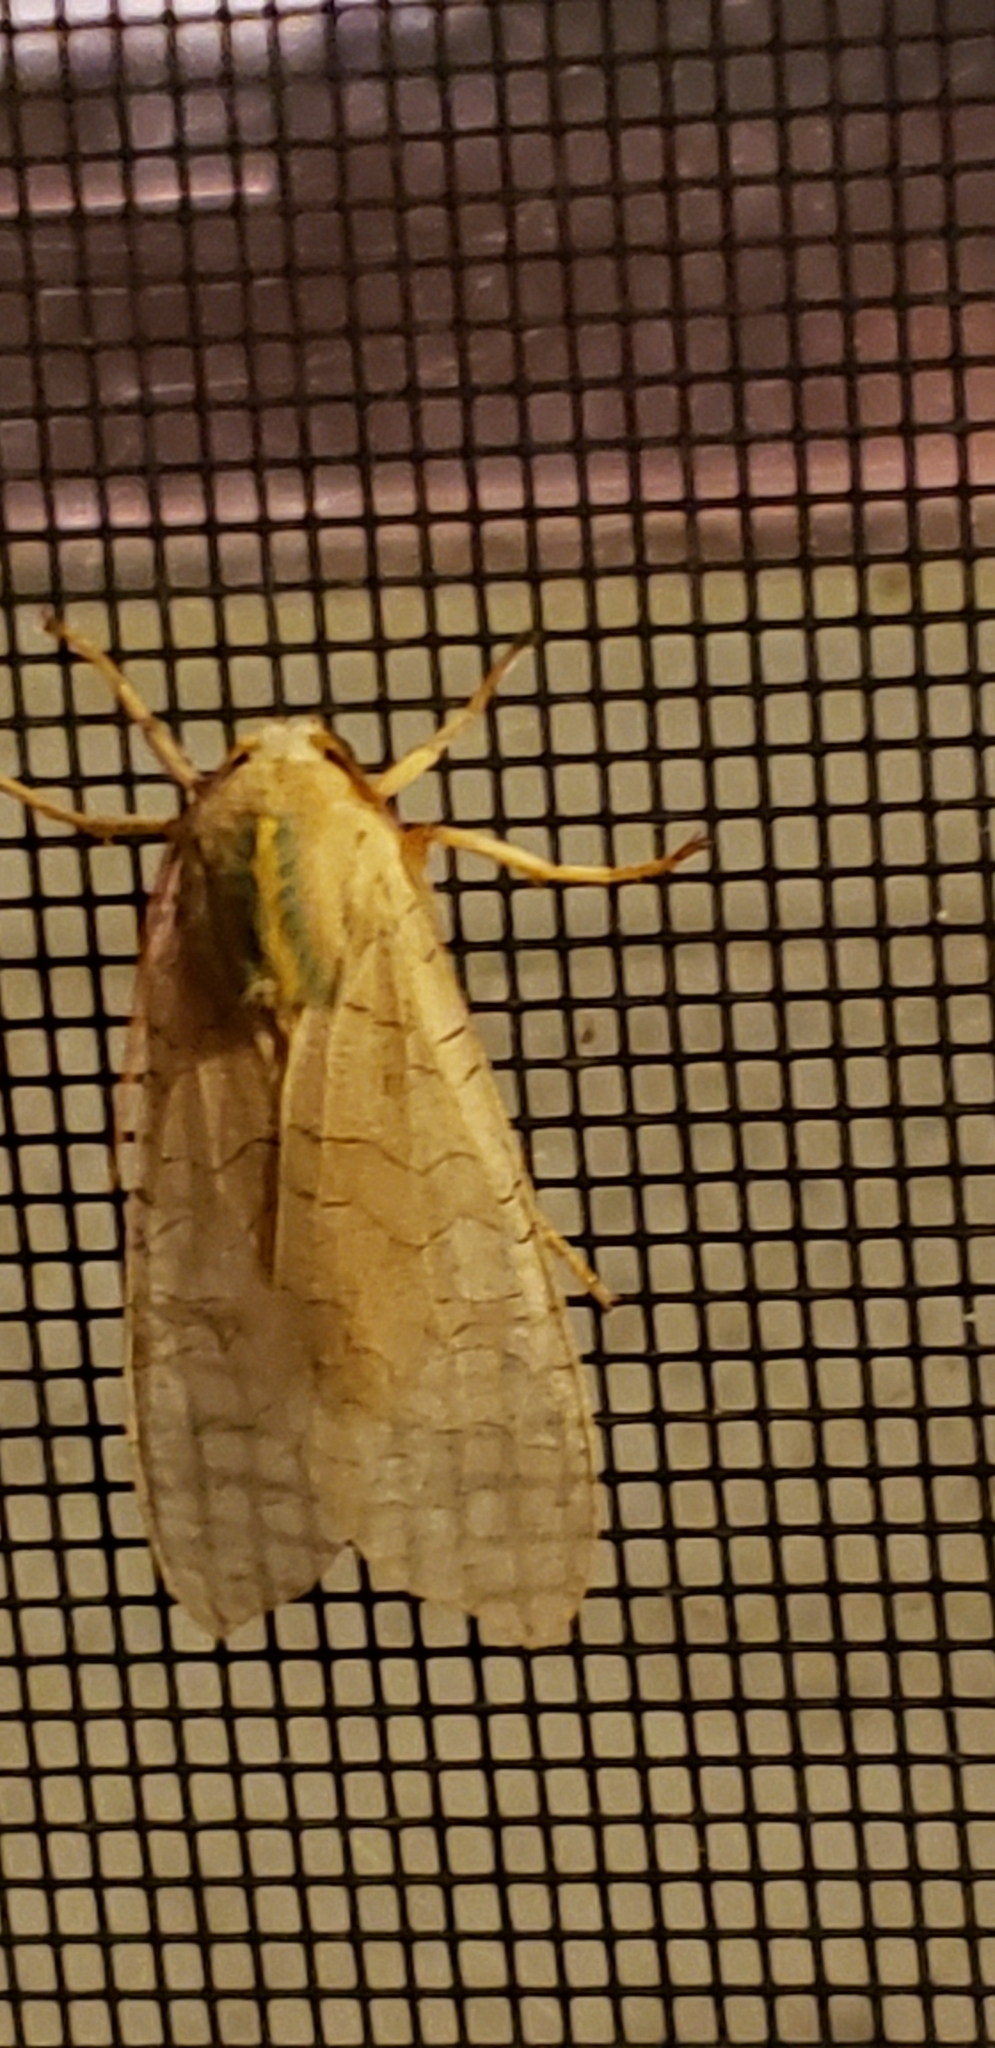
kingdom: Animalia
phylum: Arthropoda
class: Insecta
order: Lepidoptera
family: Erebidae
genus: Halysidota
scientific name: Halysidota
